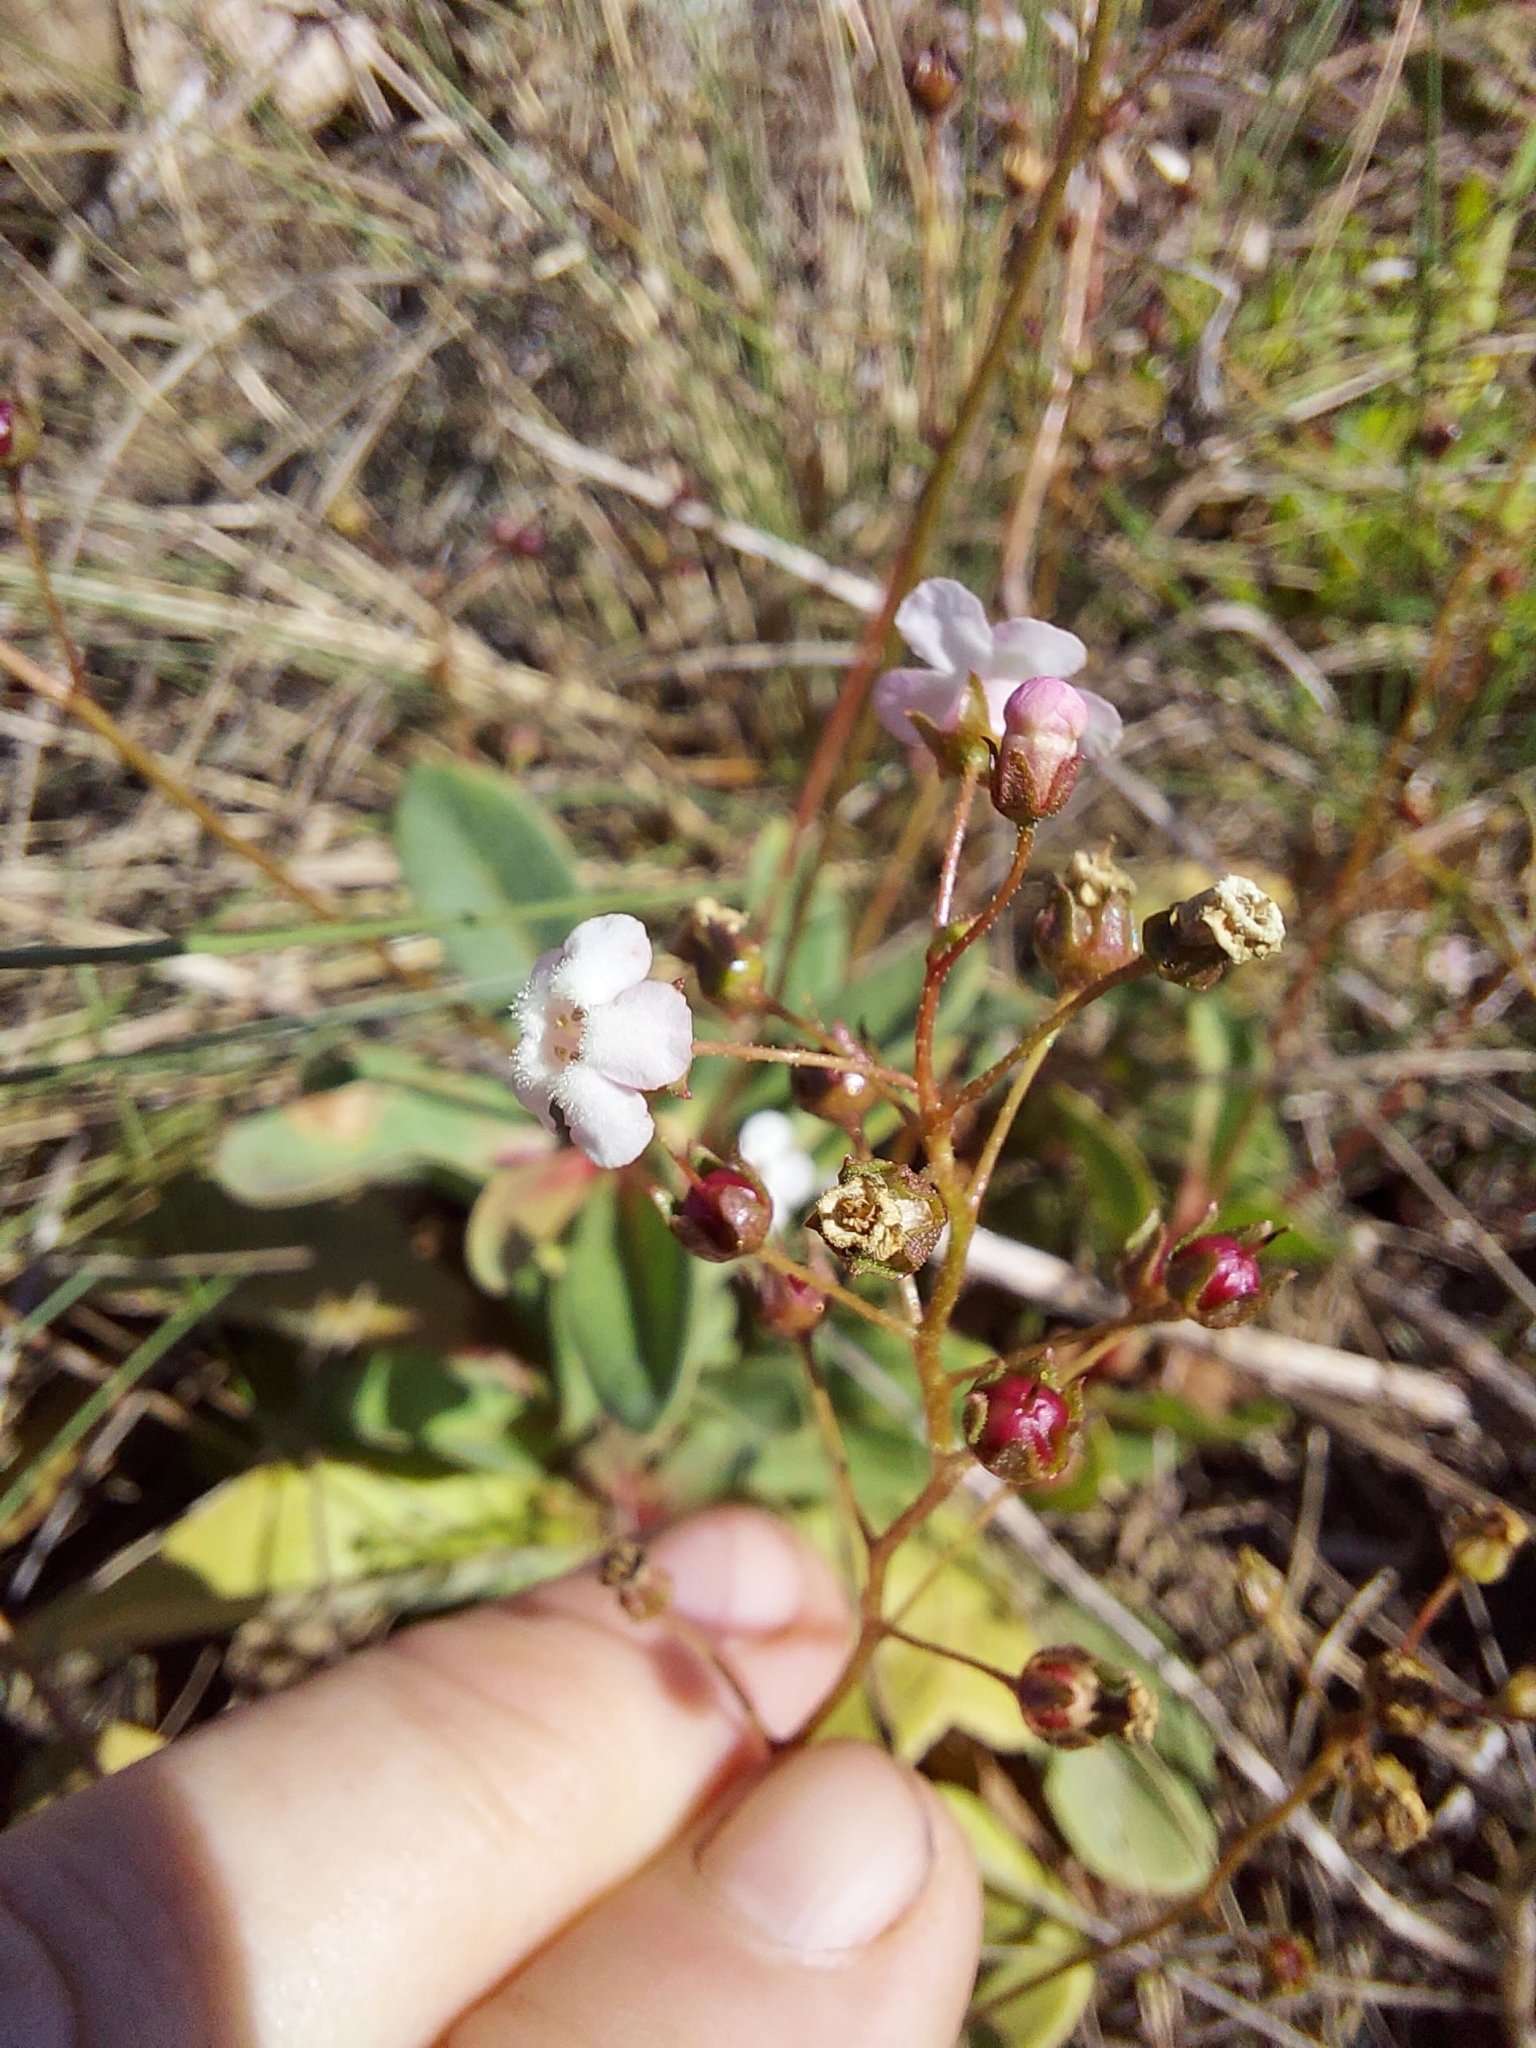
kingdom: Plantae
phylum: Tracheophyta
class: Magnoliopsida
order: Ericales
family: Primulaceae
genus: Samolus
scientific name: Samolus ebracteatus
